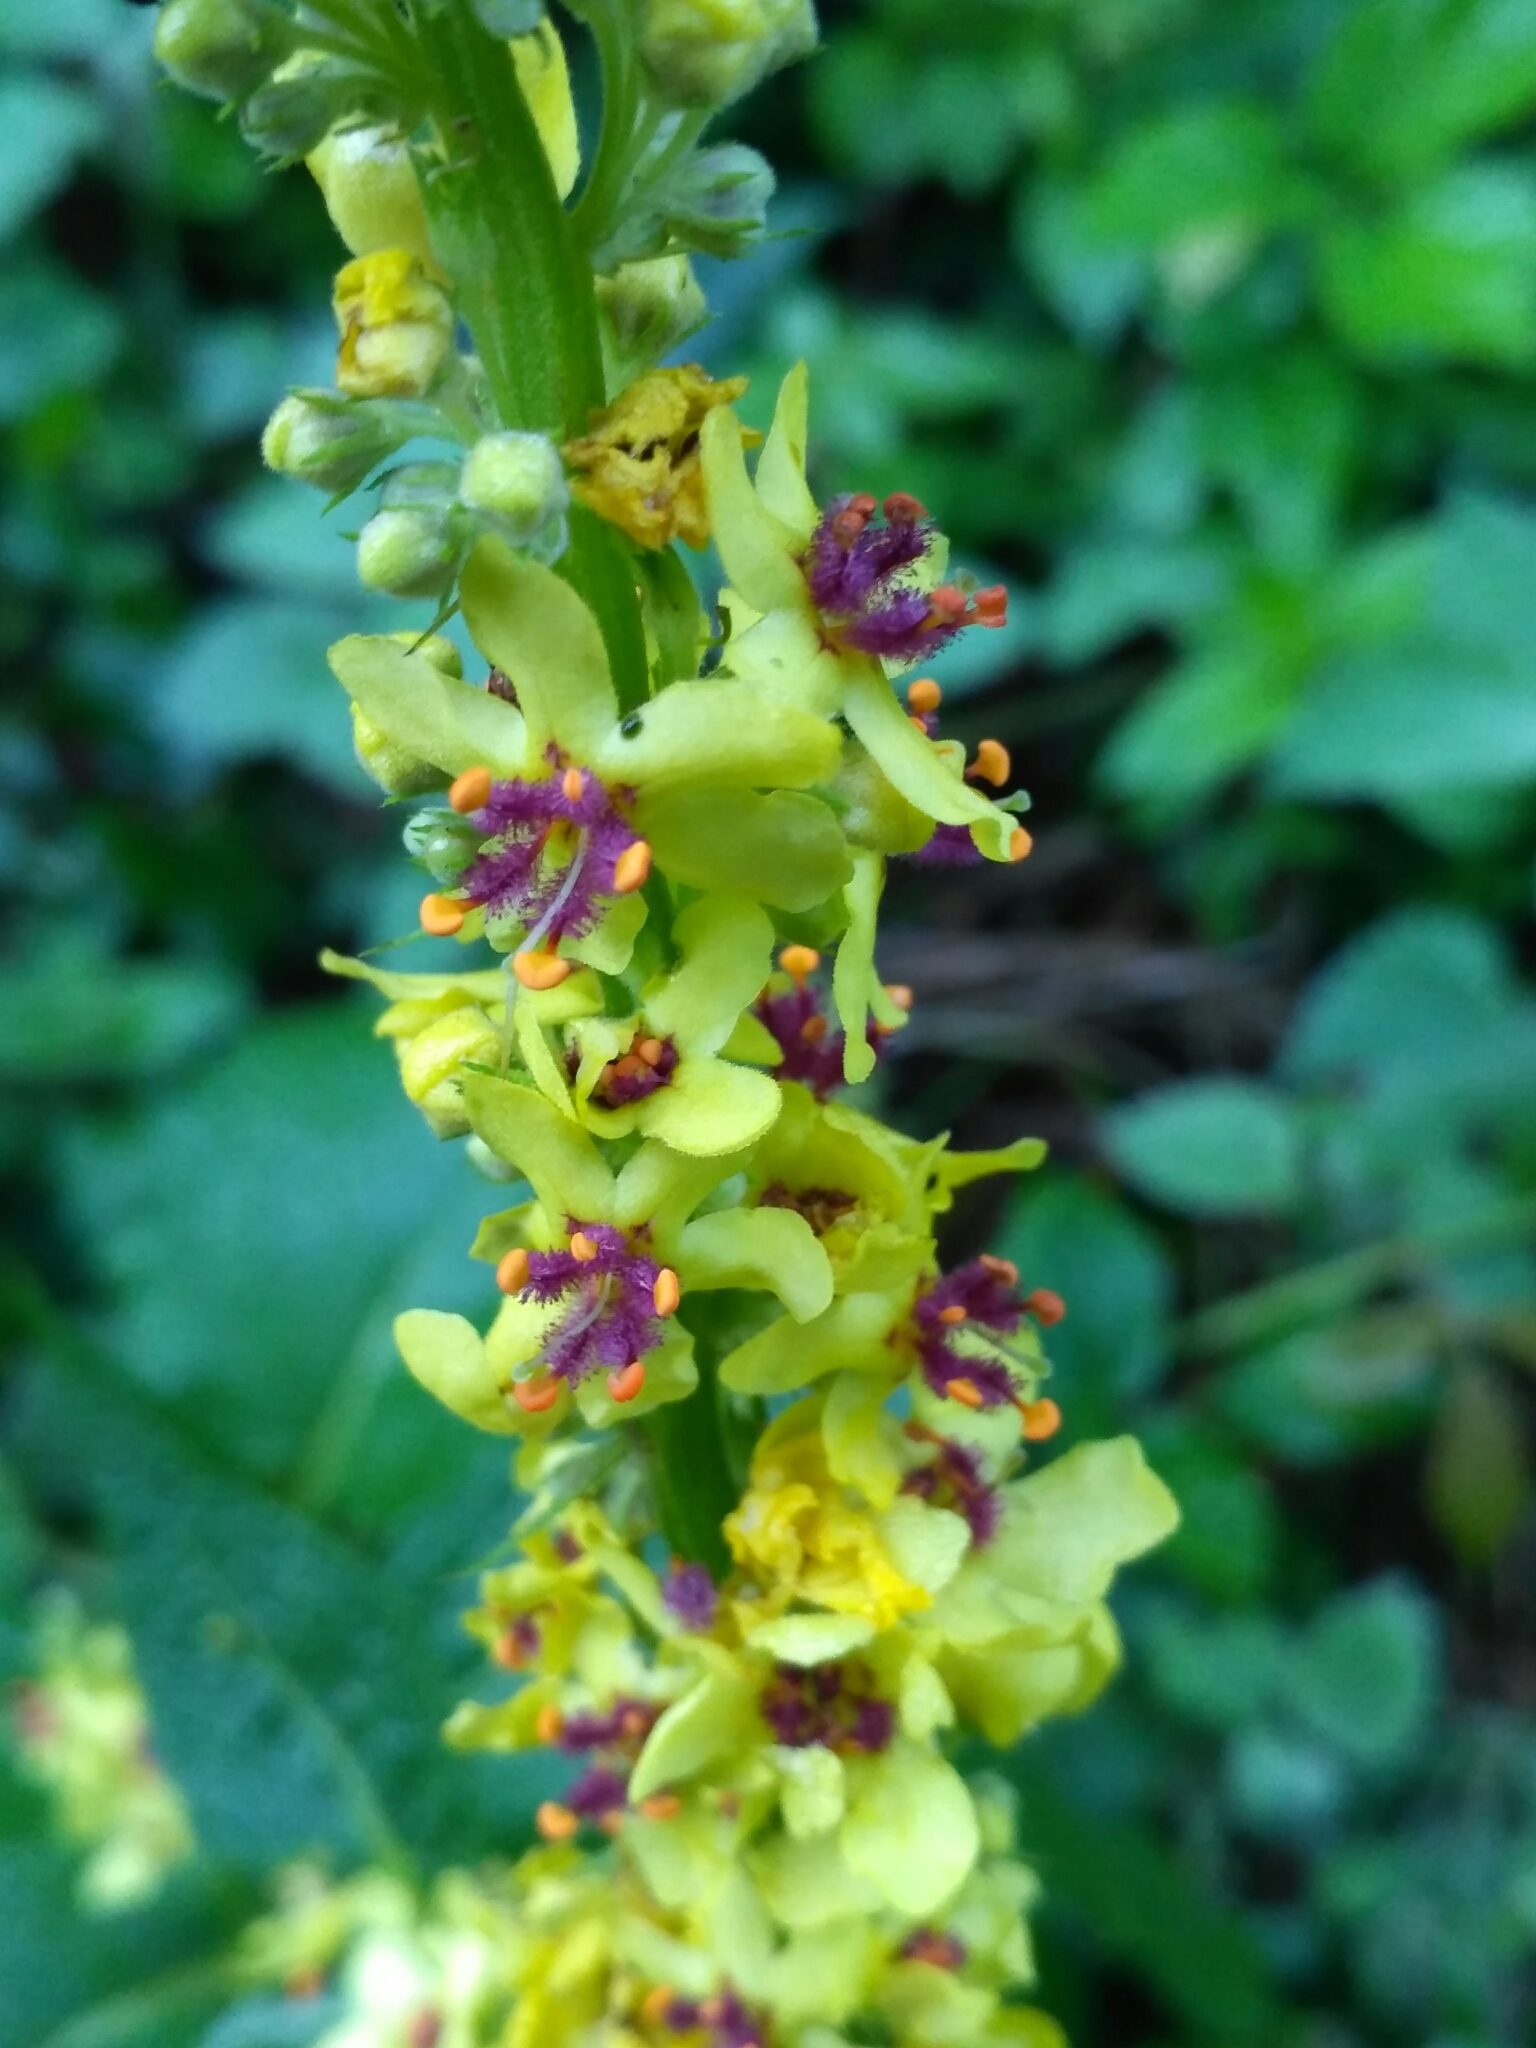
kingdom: Plantae
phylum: Tracheophyta
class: Magnoliopsida
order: Lamiales
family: Scrophulariaceae
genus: Verbascum
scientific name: Verbascum nigrum
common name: Dark mullein
